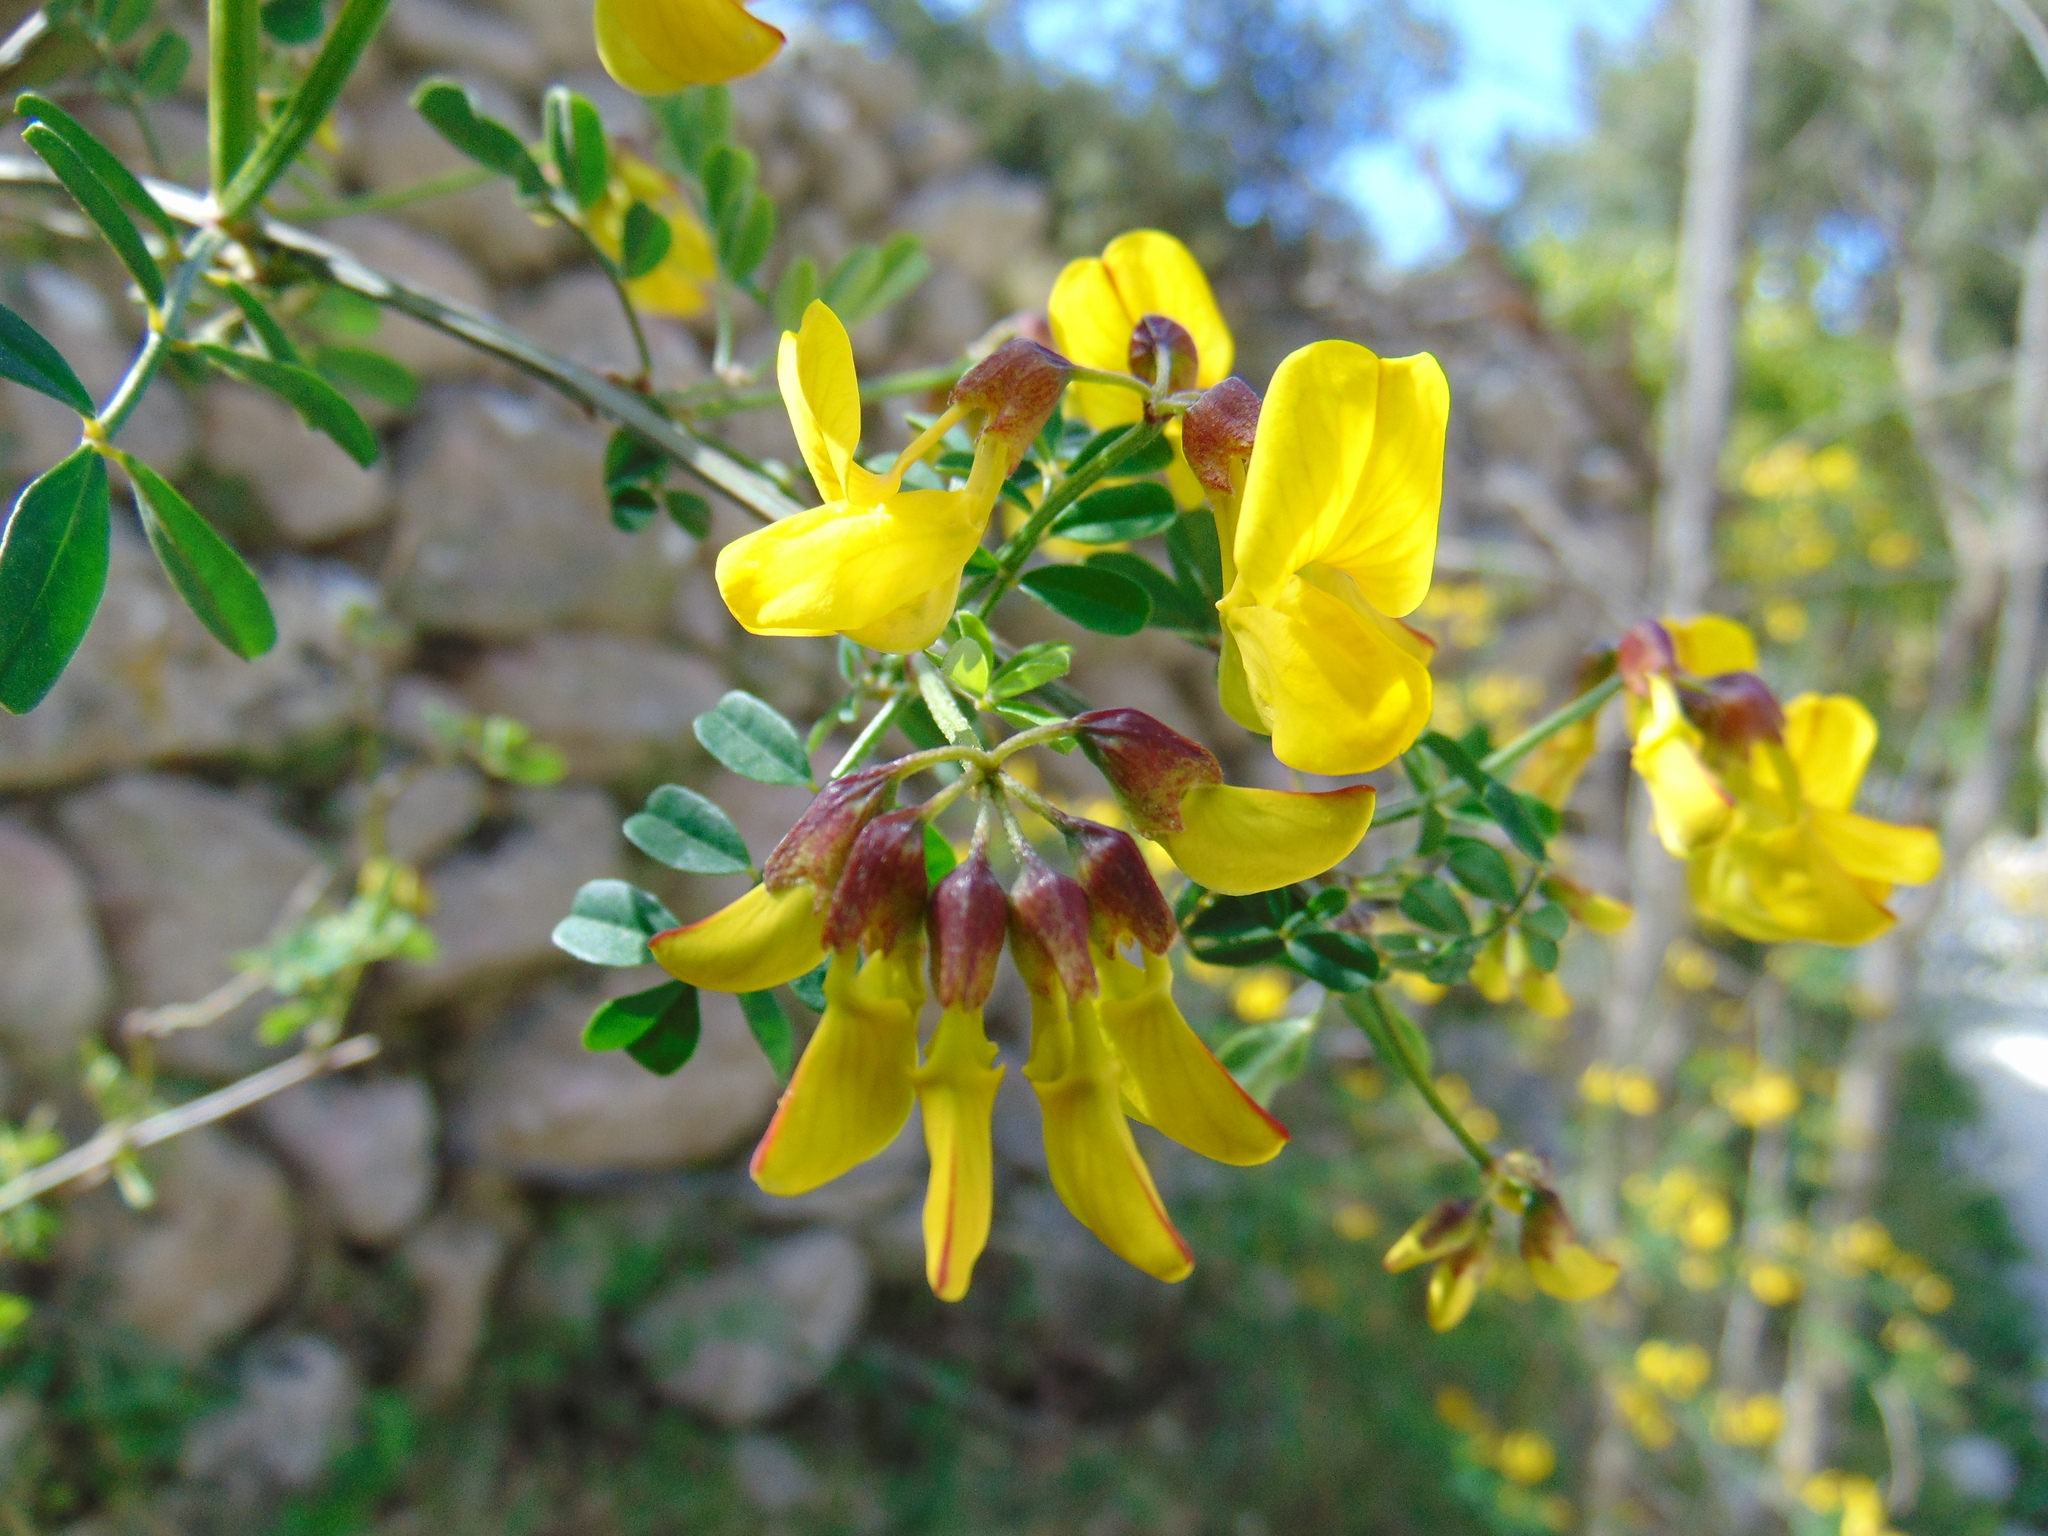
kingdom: Plantae
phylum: Tracheophyta
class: Magnoliopsida
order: Fabales
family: Fabaceae
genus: Hippocrepis
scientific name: Hippocrepis emerus
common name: Scorpion senna
